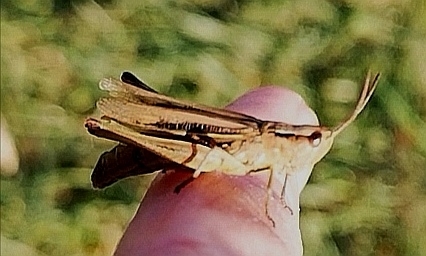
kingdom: Animalia
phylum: Arthropoda
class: Insecta
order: Orthoptera
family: Acrididae
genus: Chorthippus
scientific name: Chorthippus albomarginatus
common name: Lesser marsh grasshopper
